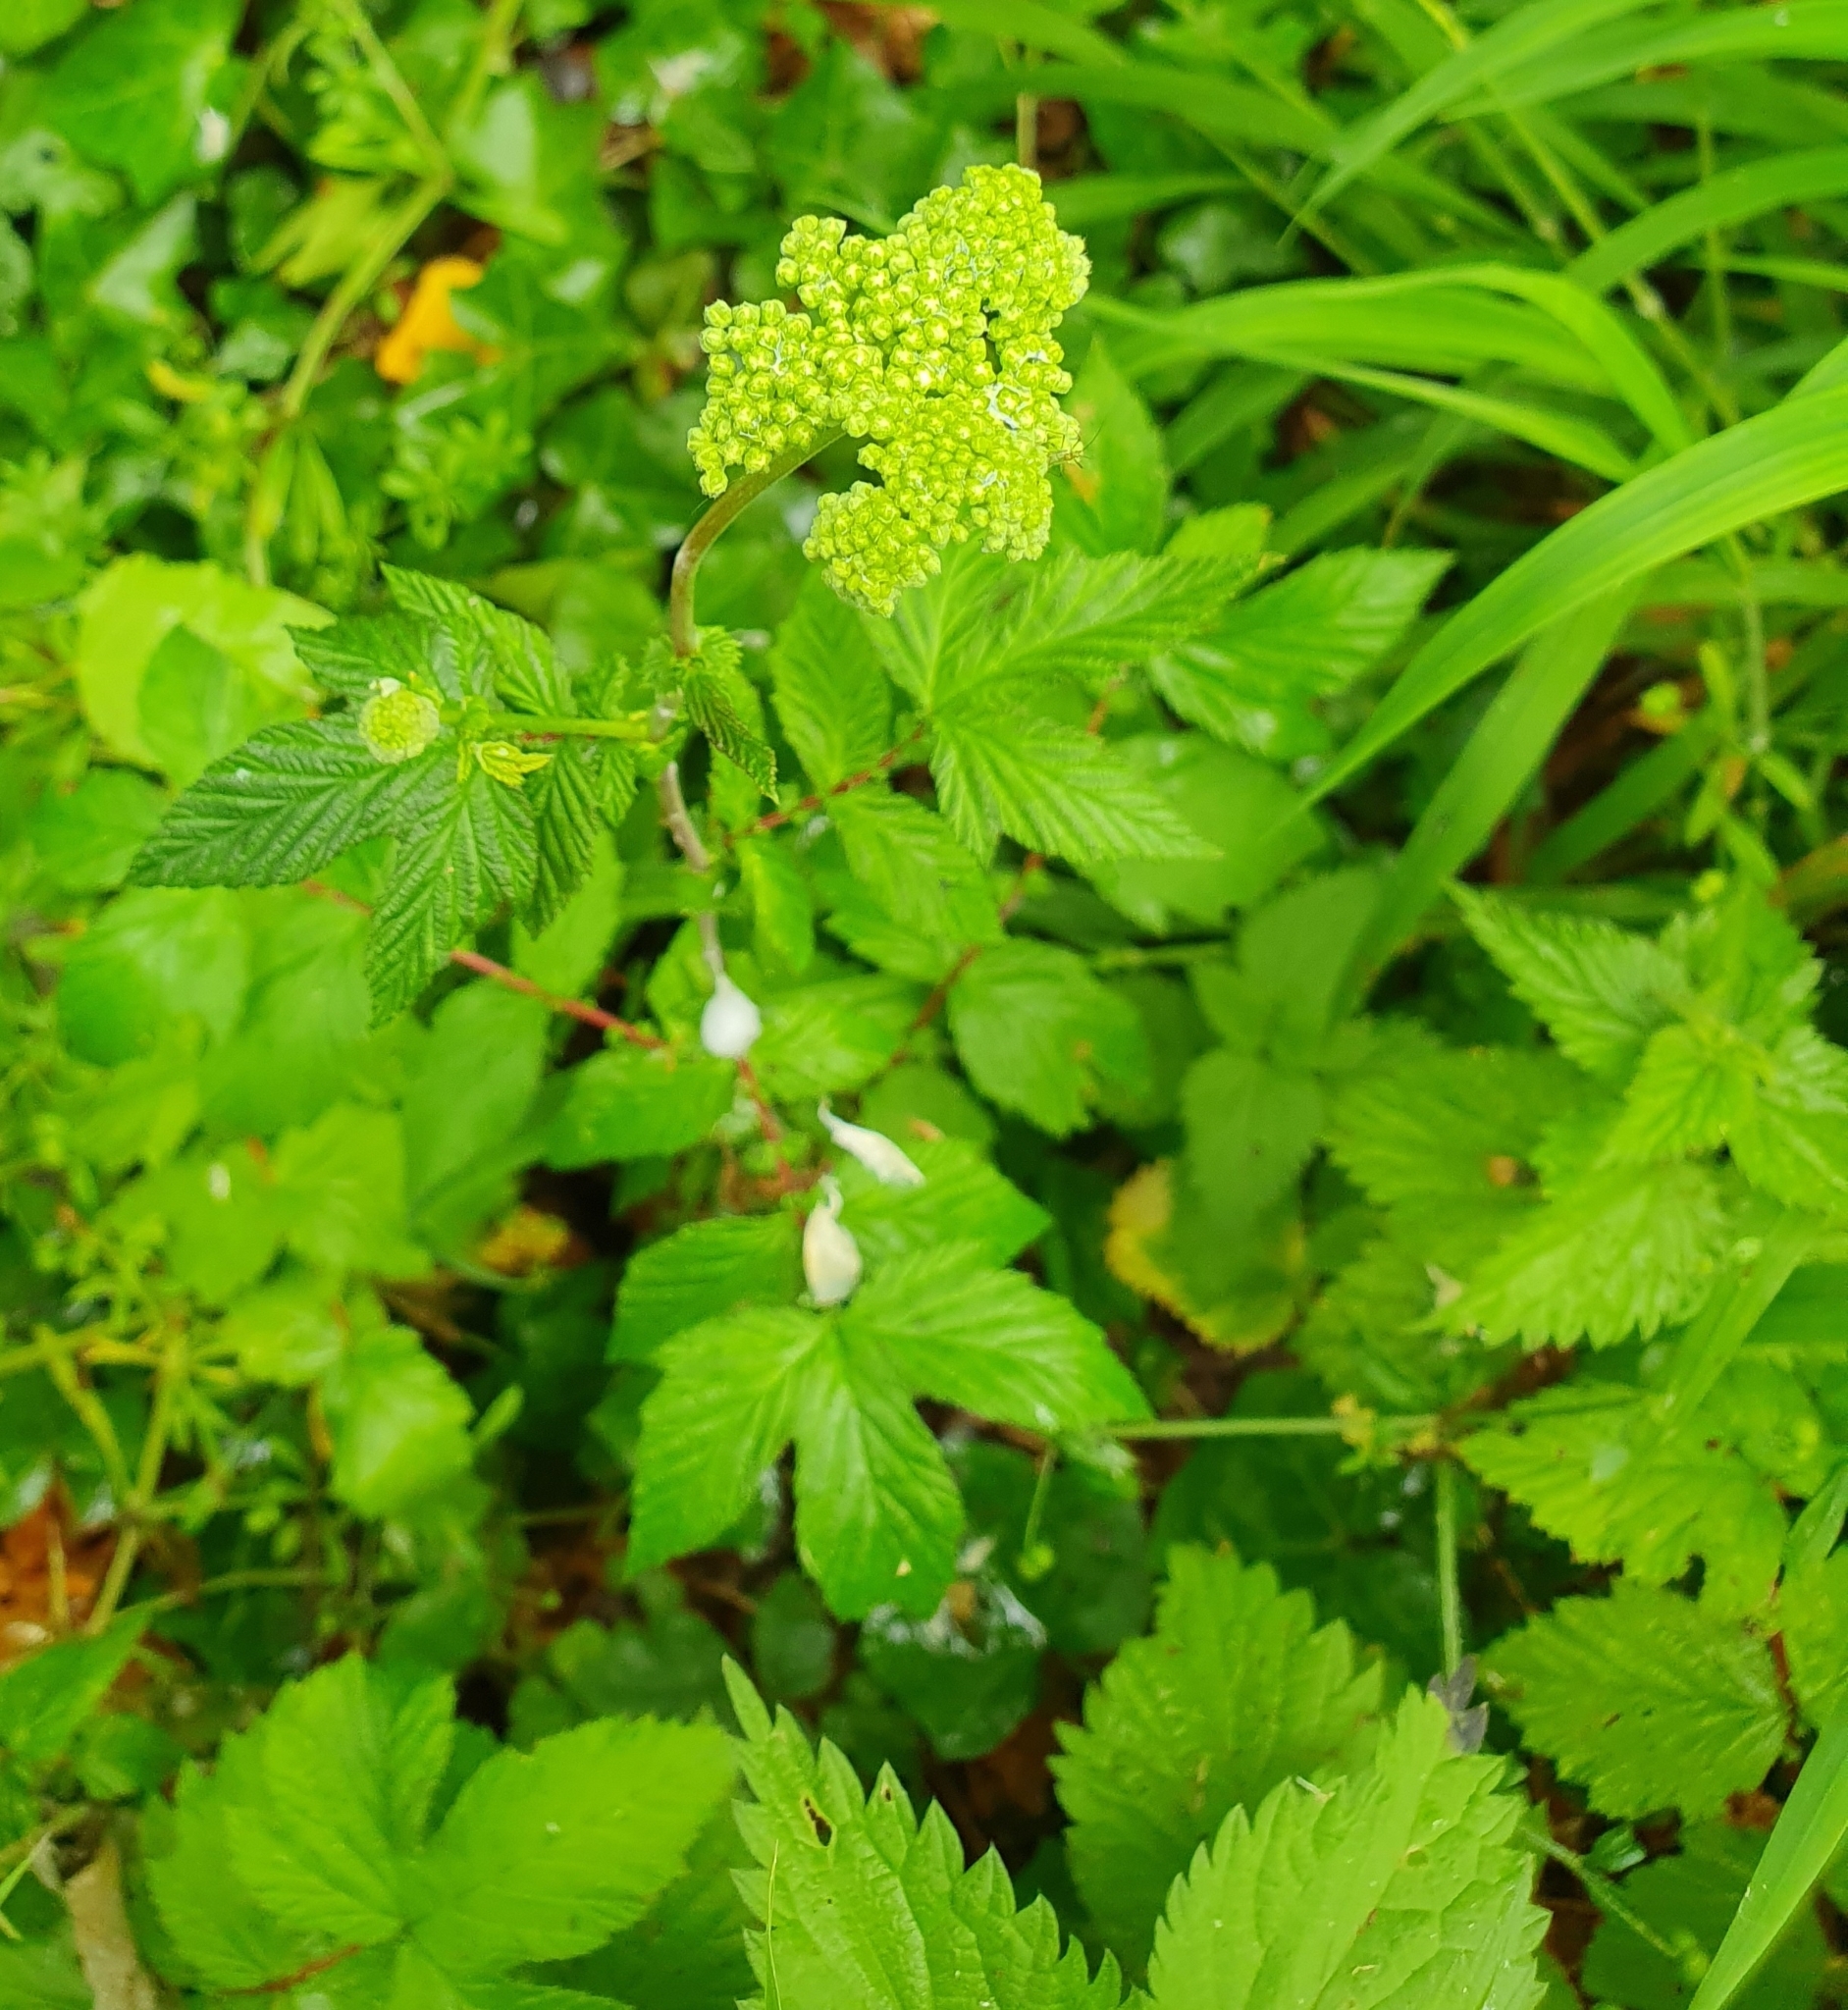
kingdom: Plantae
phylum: Tracheophyta
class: Magnoliopsida
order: Rosales
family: Rosaceae
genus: Filipendula
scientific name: Filipendula ulmaria
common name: Meadowsweet
